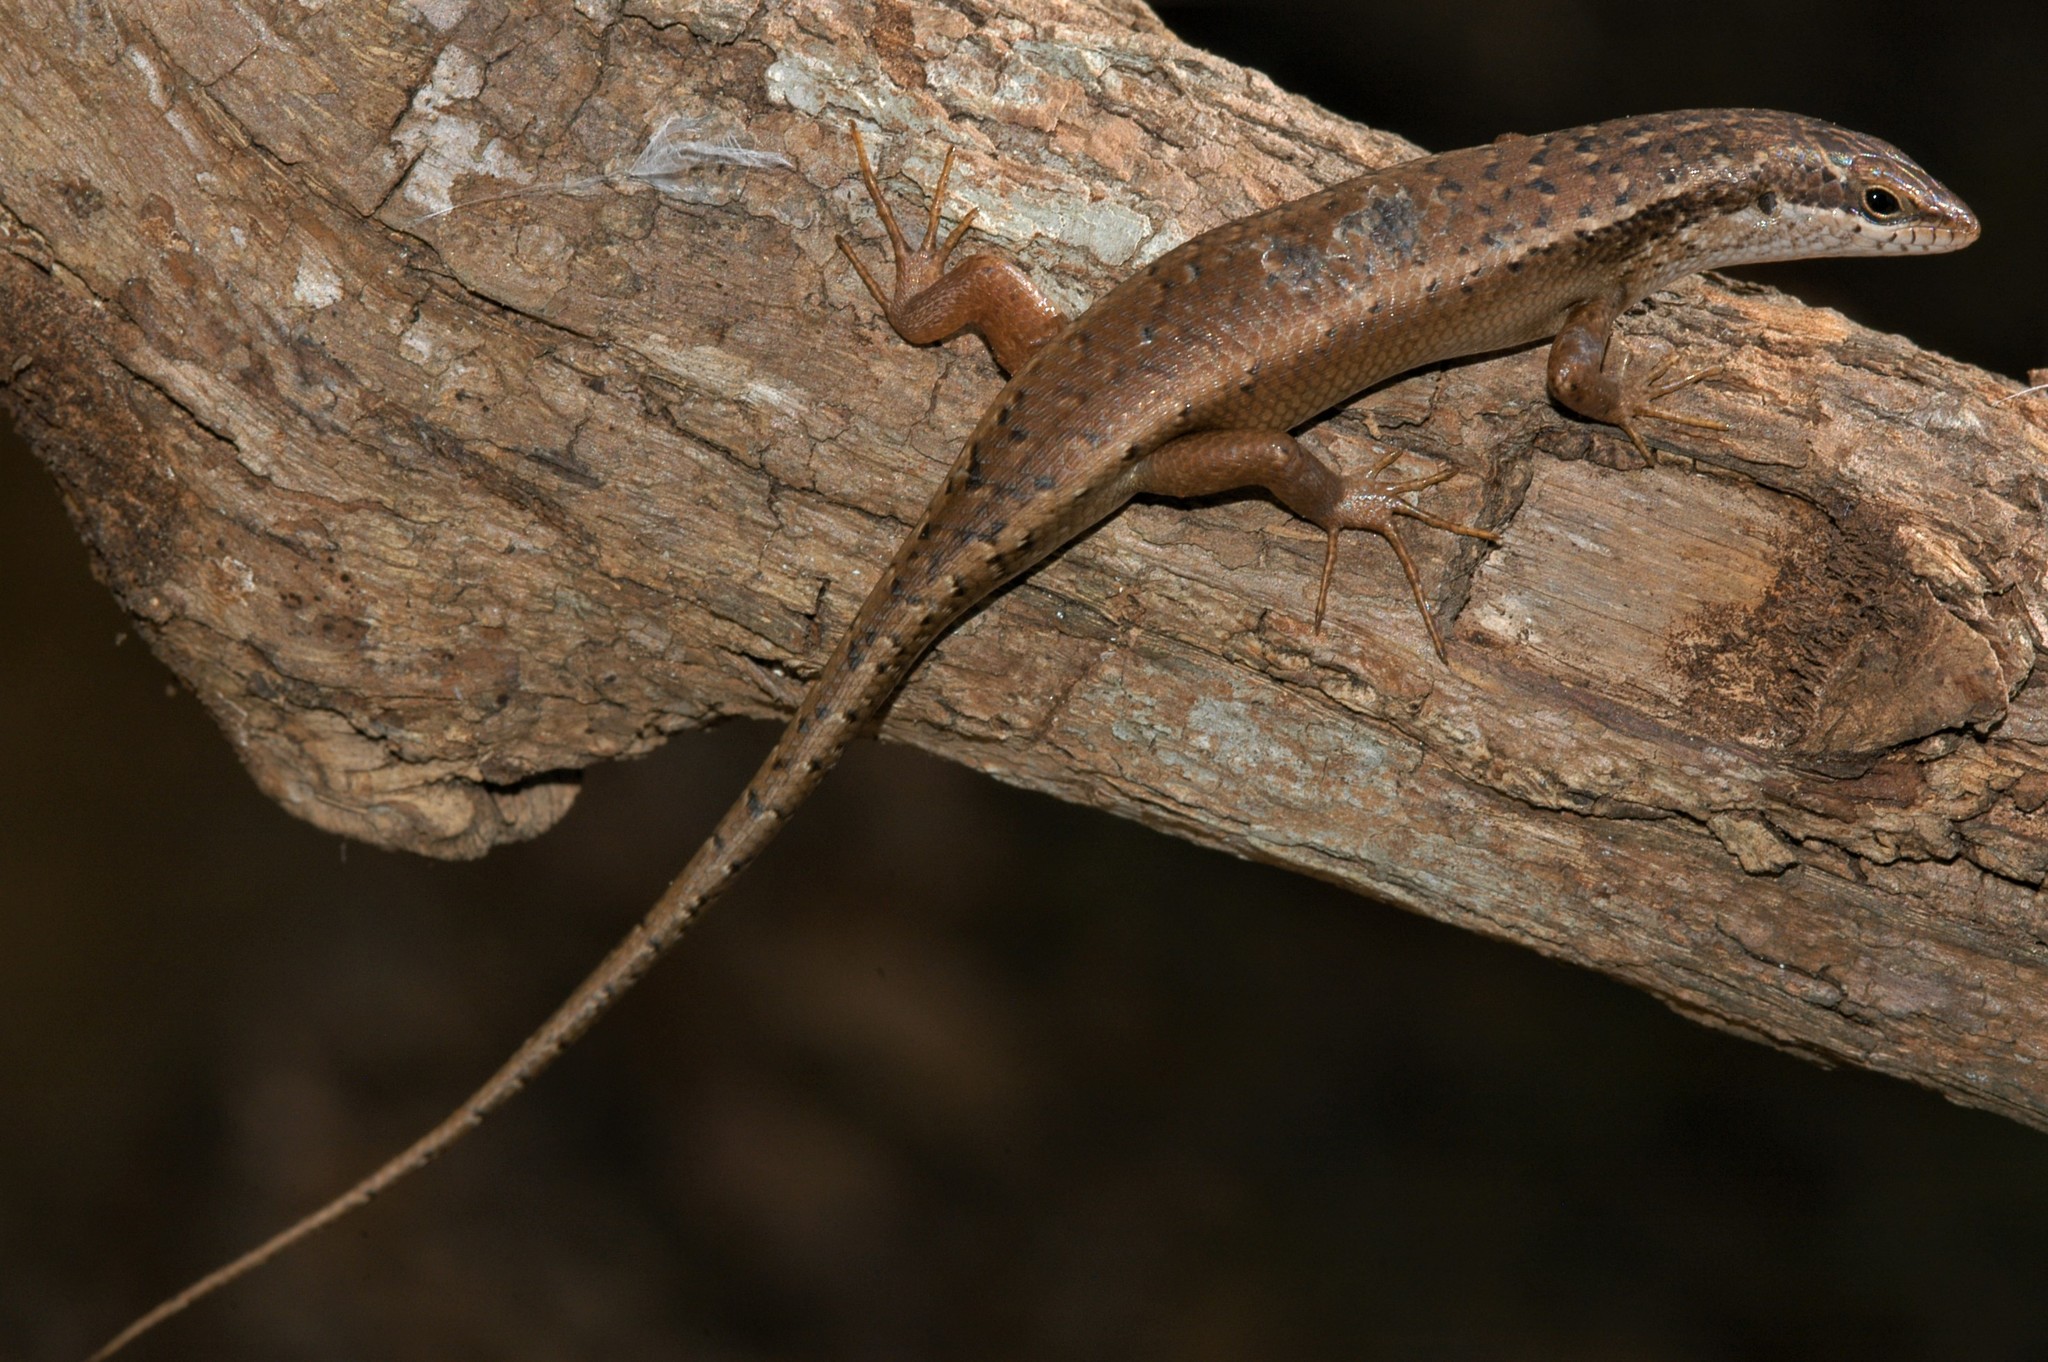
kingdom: Animalia
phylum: Chordata
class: Squamata
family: Scincidae
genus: Trachylepis
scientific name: Trachylepis tandrefana
